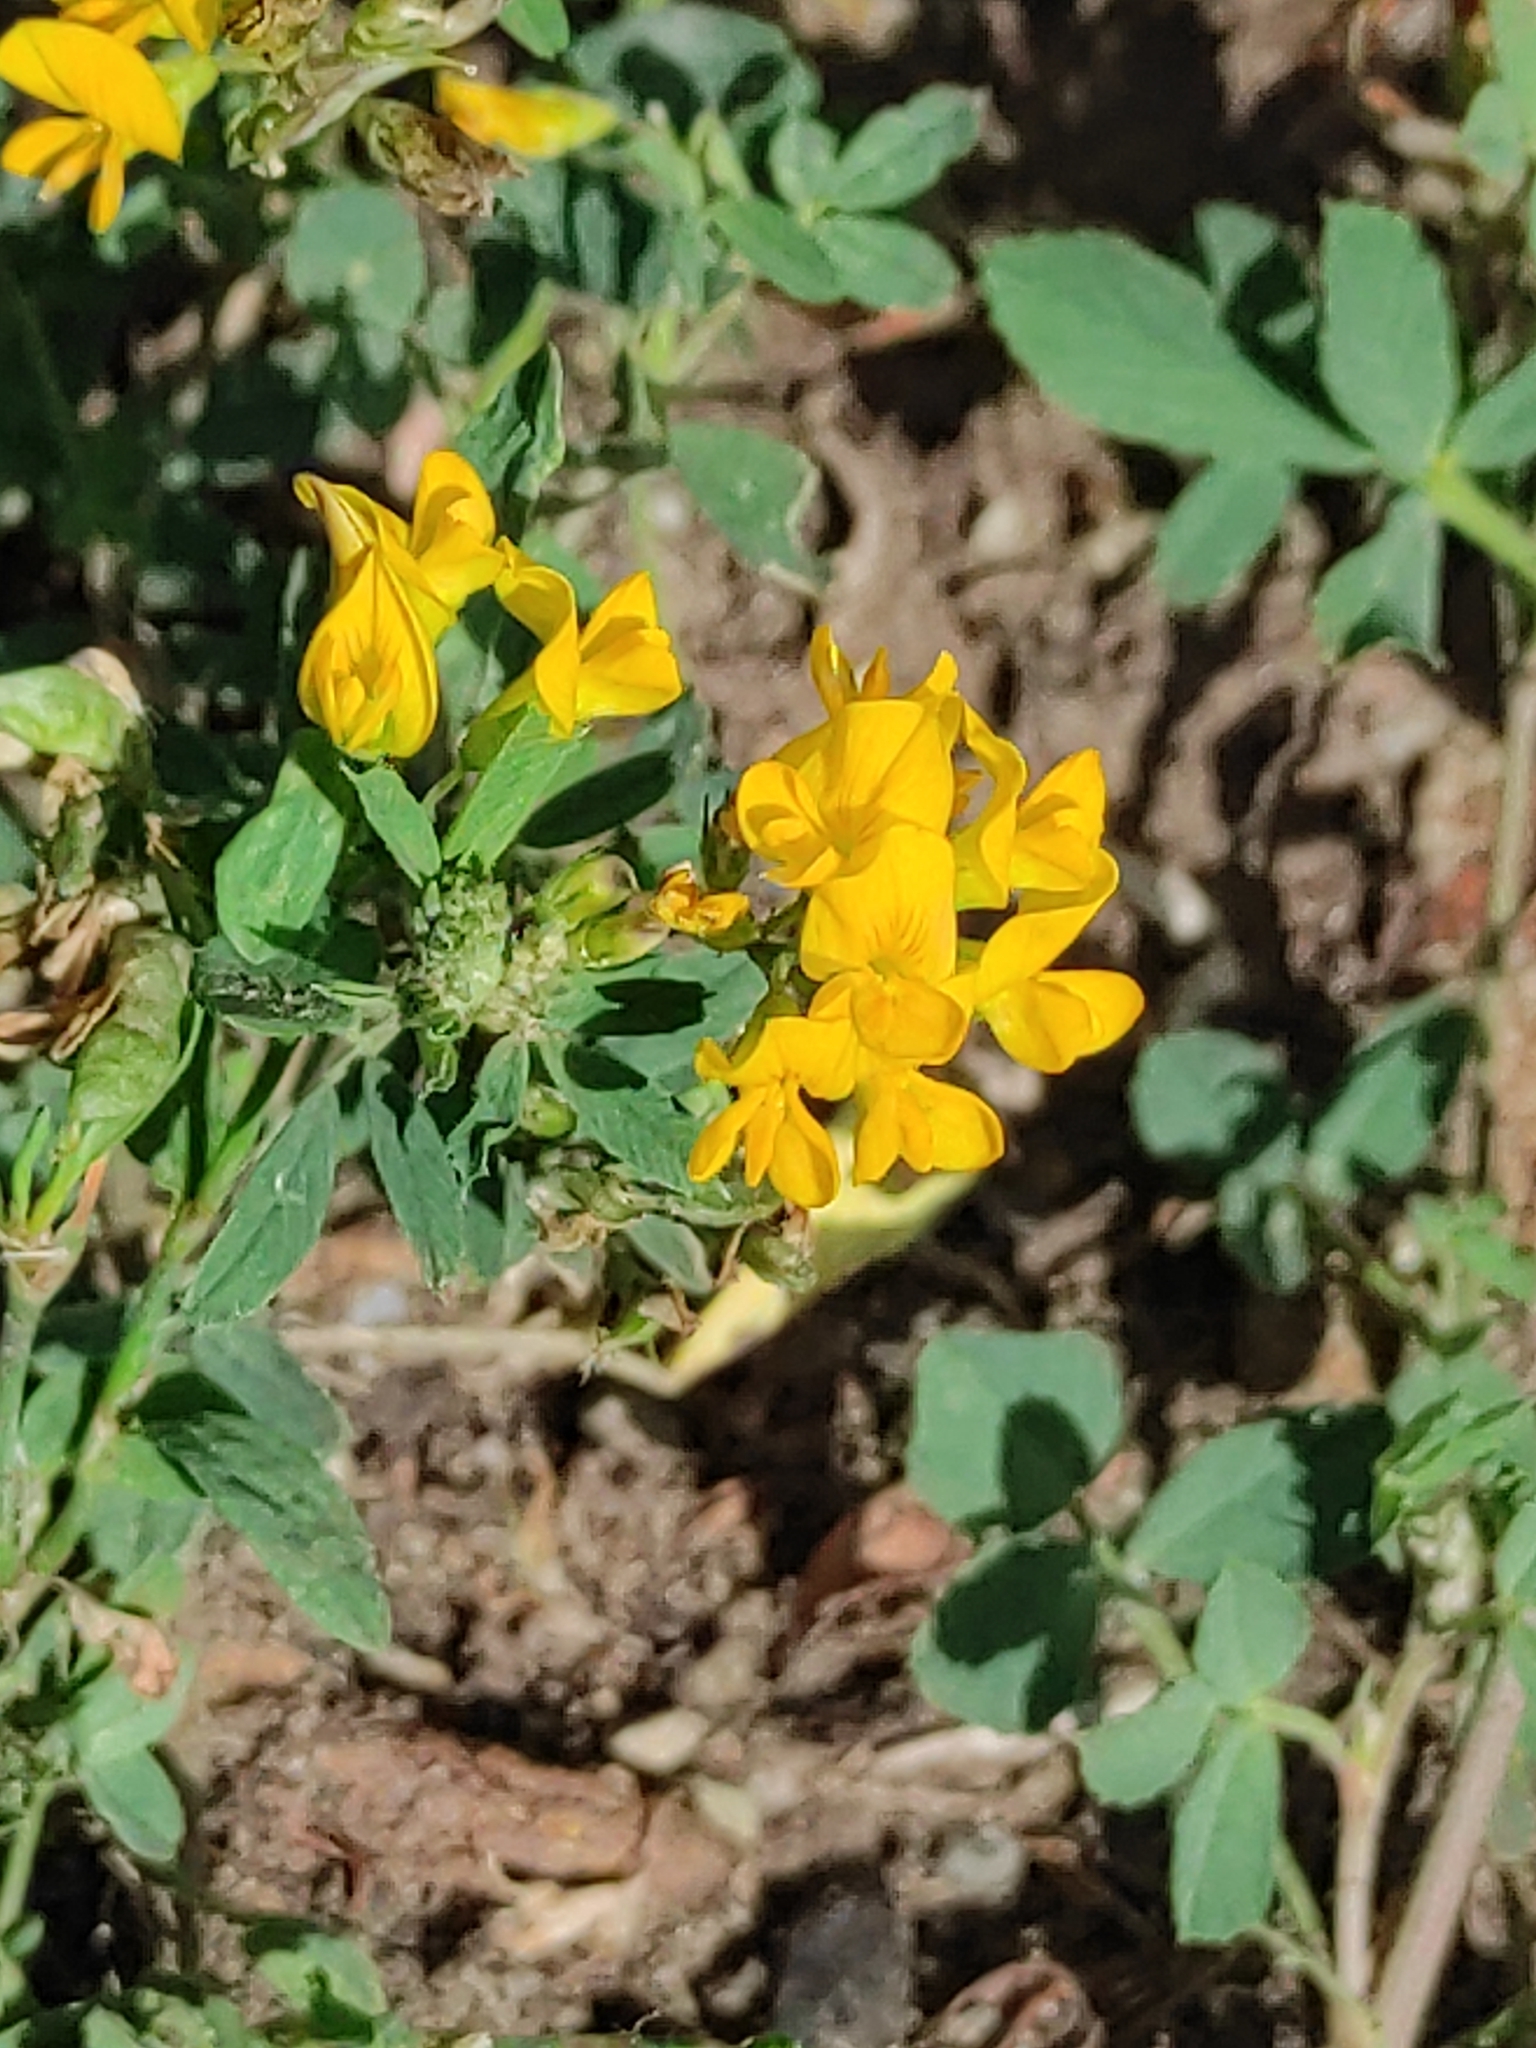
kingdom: Plantae
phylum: Tracheophyta
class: Magnoliopsida
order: Fabales
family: Fabaceae
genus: Medicago
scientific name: Medicago falcata
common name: Sickle medick
